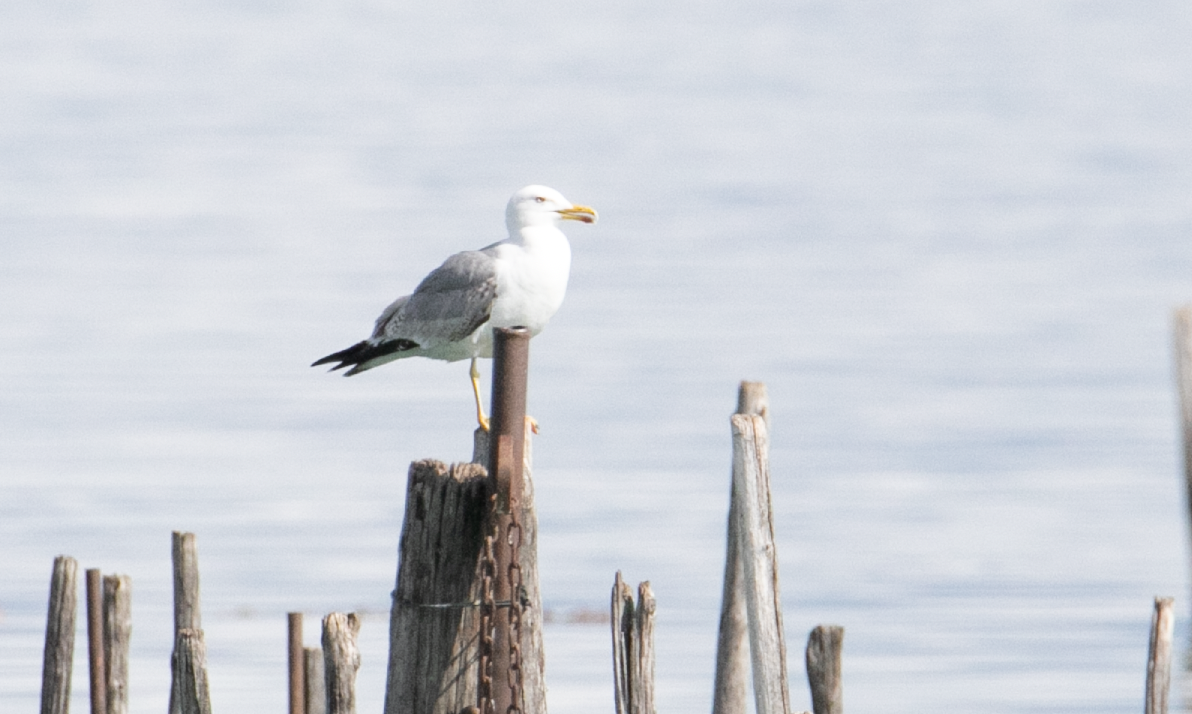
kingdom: Animalia
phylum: Chordata
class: Aves
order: Charadriiformes
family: Laridae
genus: Larus
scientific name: Larus michahellis
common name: Yellow-legged gull
